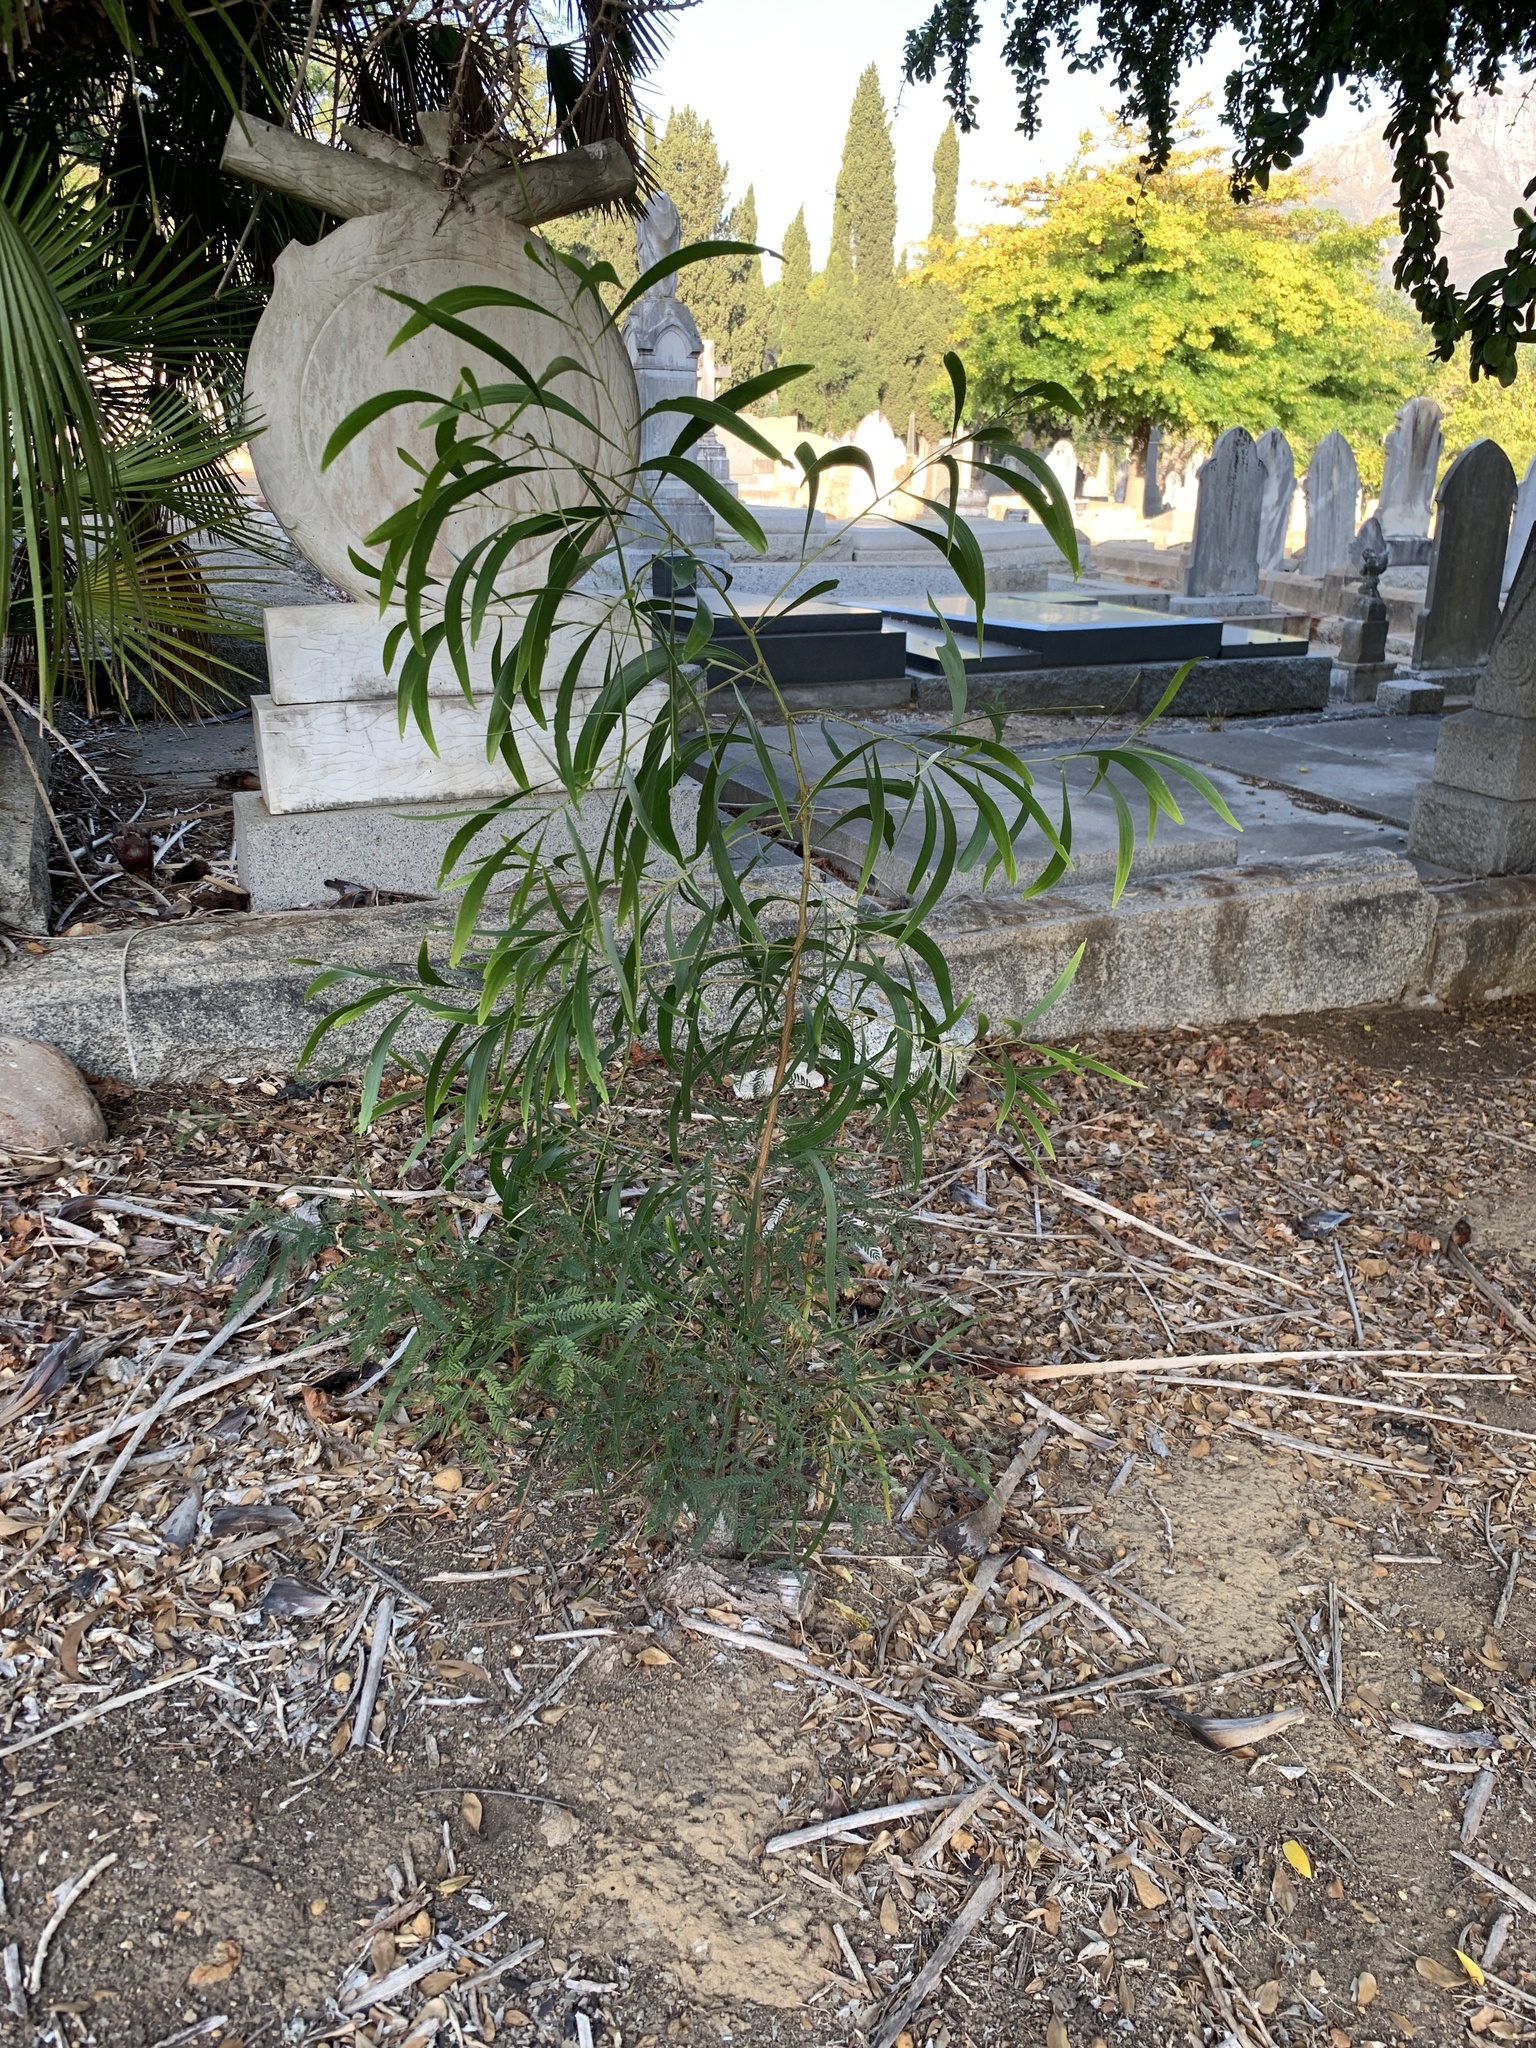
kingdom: Plantae
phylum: Tracheophyta
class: Magnoliopsida
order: Fabales
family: Fabaceae
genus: Acacia
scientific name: Acacia implexa
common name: Black wattle
